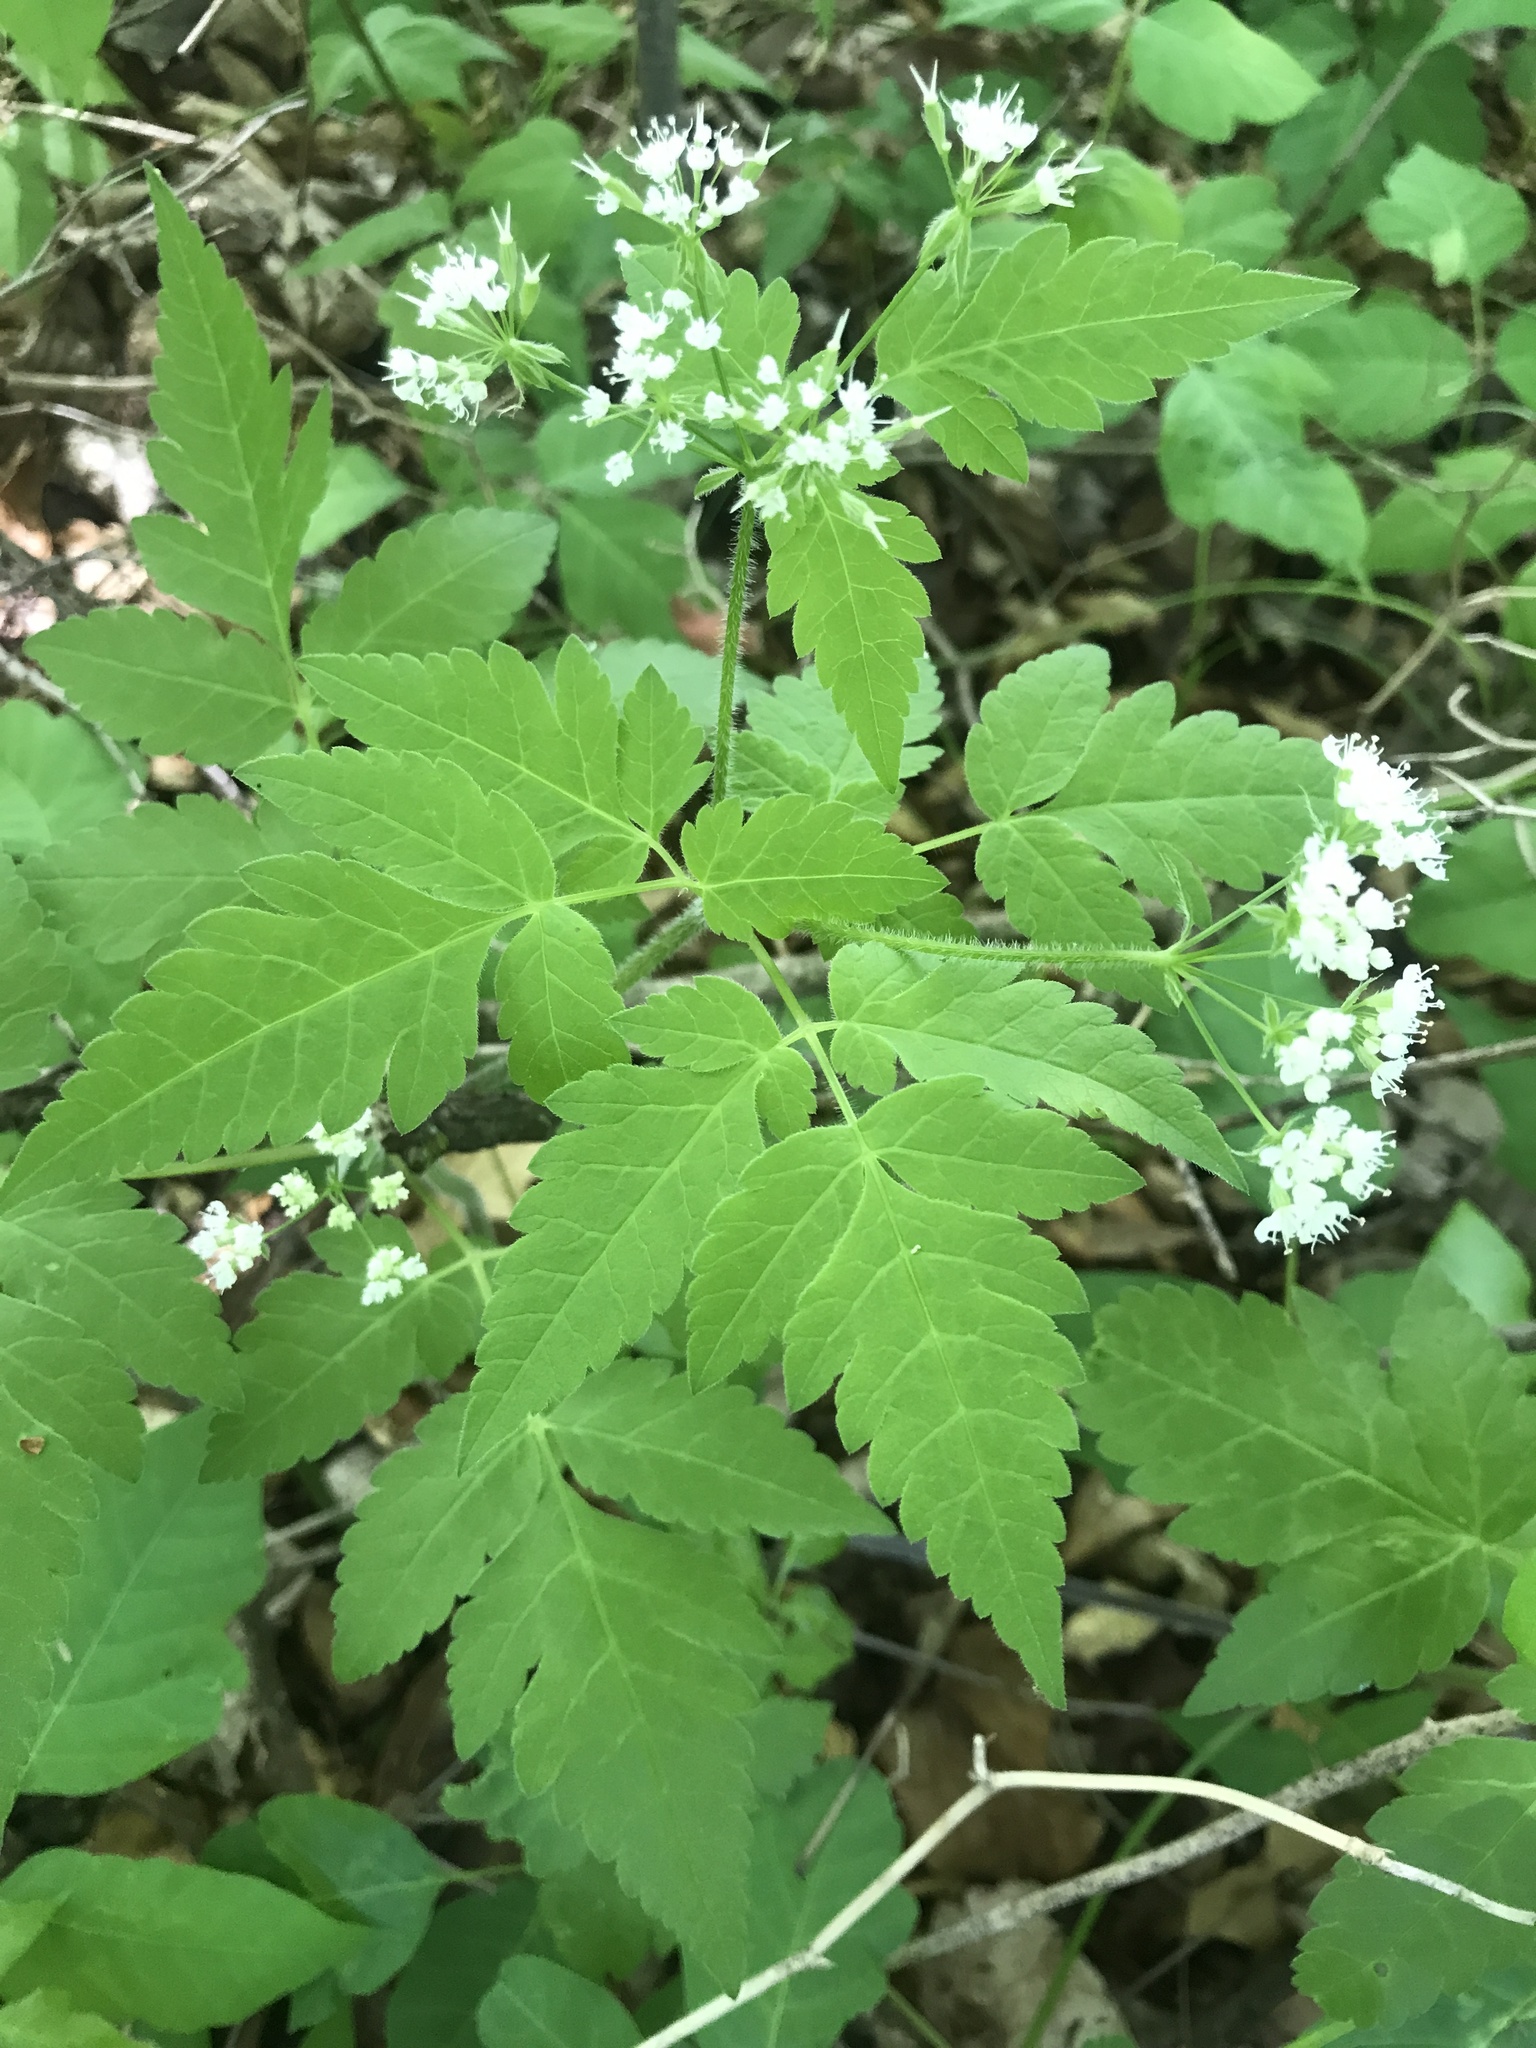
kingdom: Plantae
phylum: Tracheophyta
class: Magnoliopsida
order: Apiales
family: Apiaceae
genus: Osmorhiza
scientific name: Osmorhiza longistylis
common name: Smooth sweet cicely
